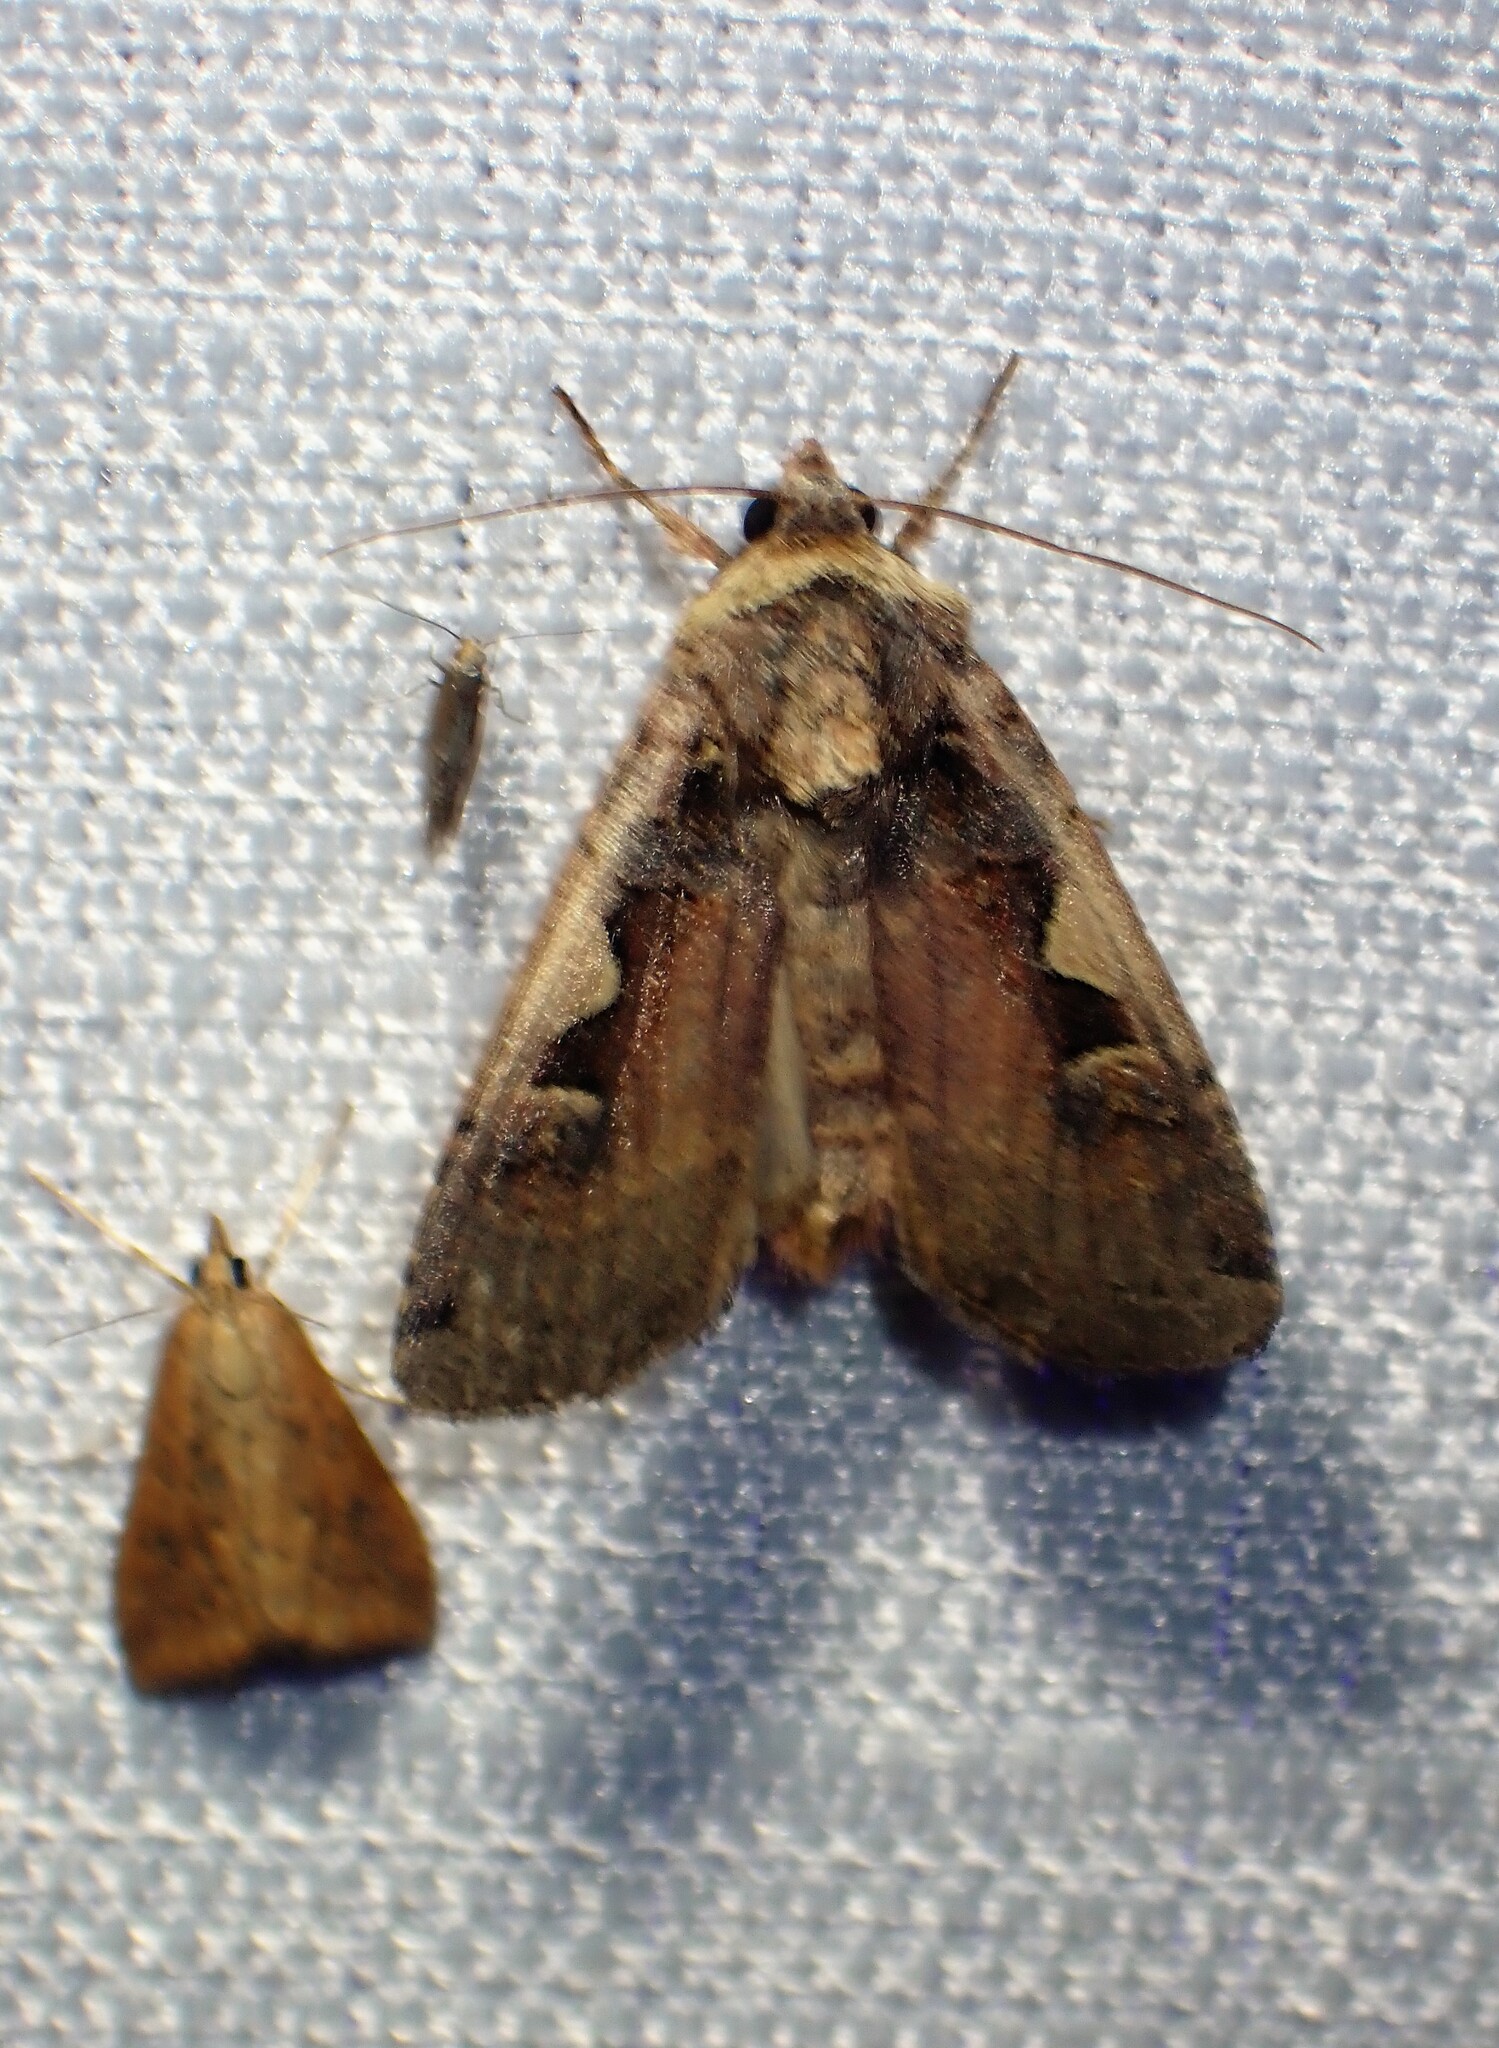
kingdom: Animalia
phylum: Arthropoda
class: Insecta
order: Lepidoptera
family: Noctuidae
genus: Xestia
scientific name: Xestia c-nigrum
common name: Setaceous hebrew character
